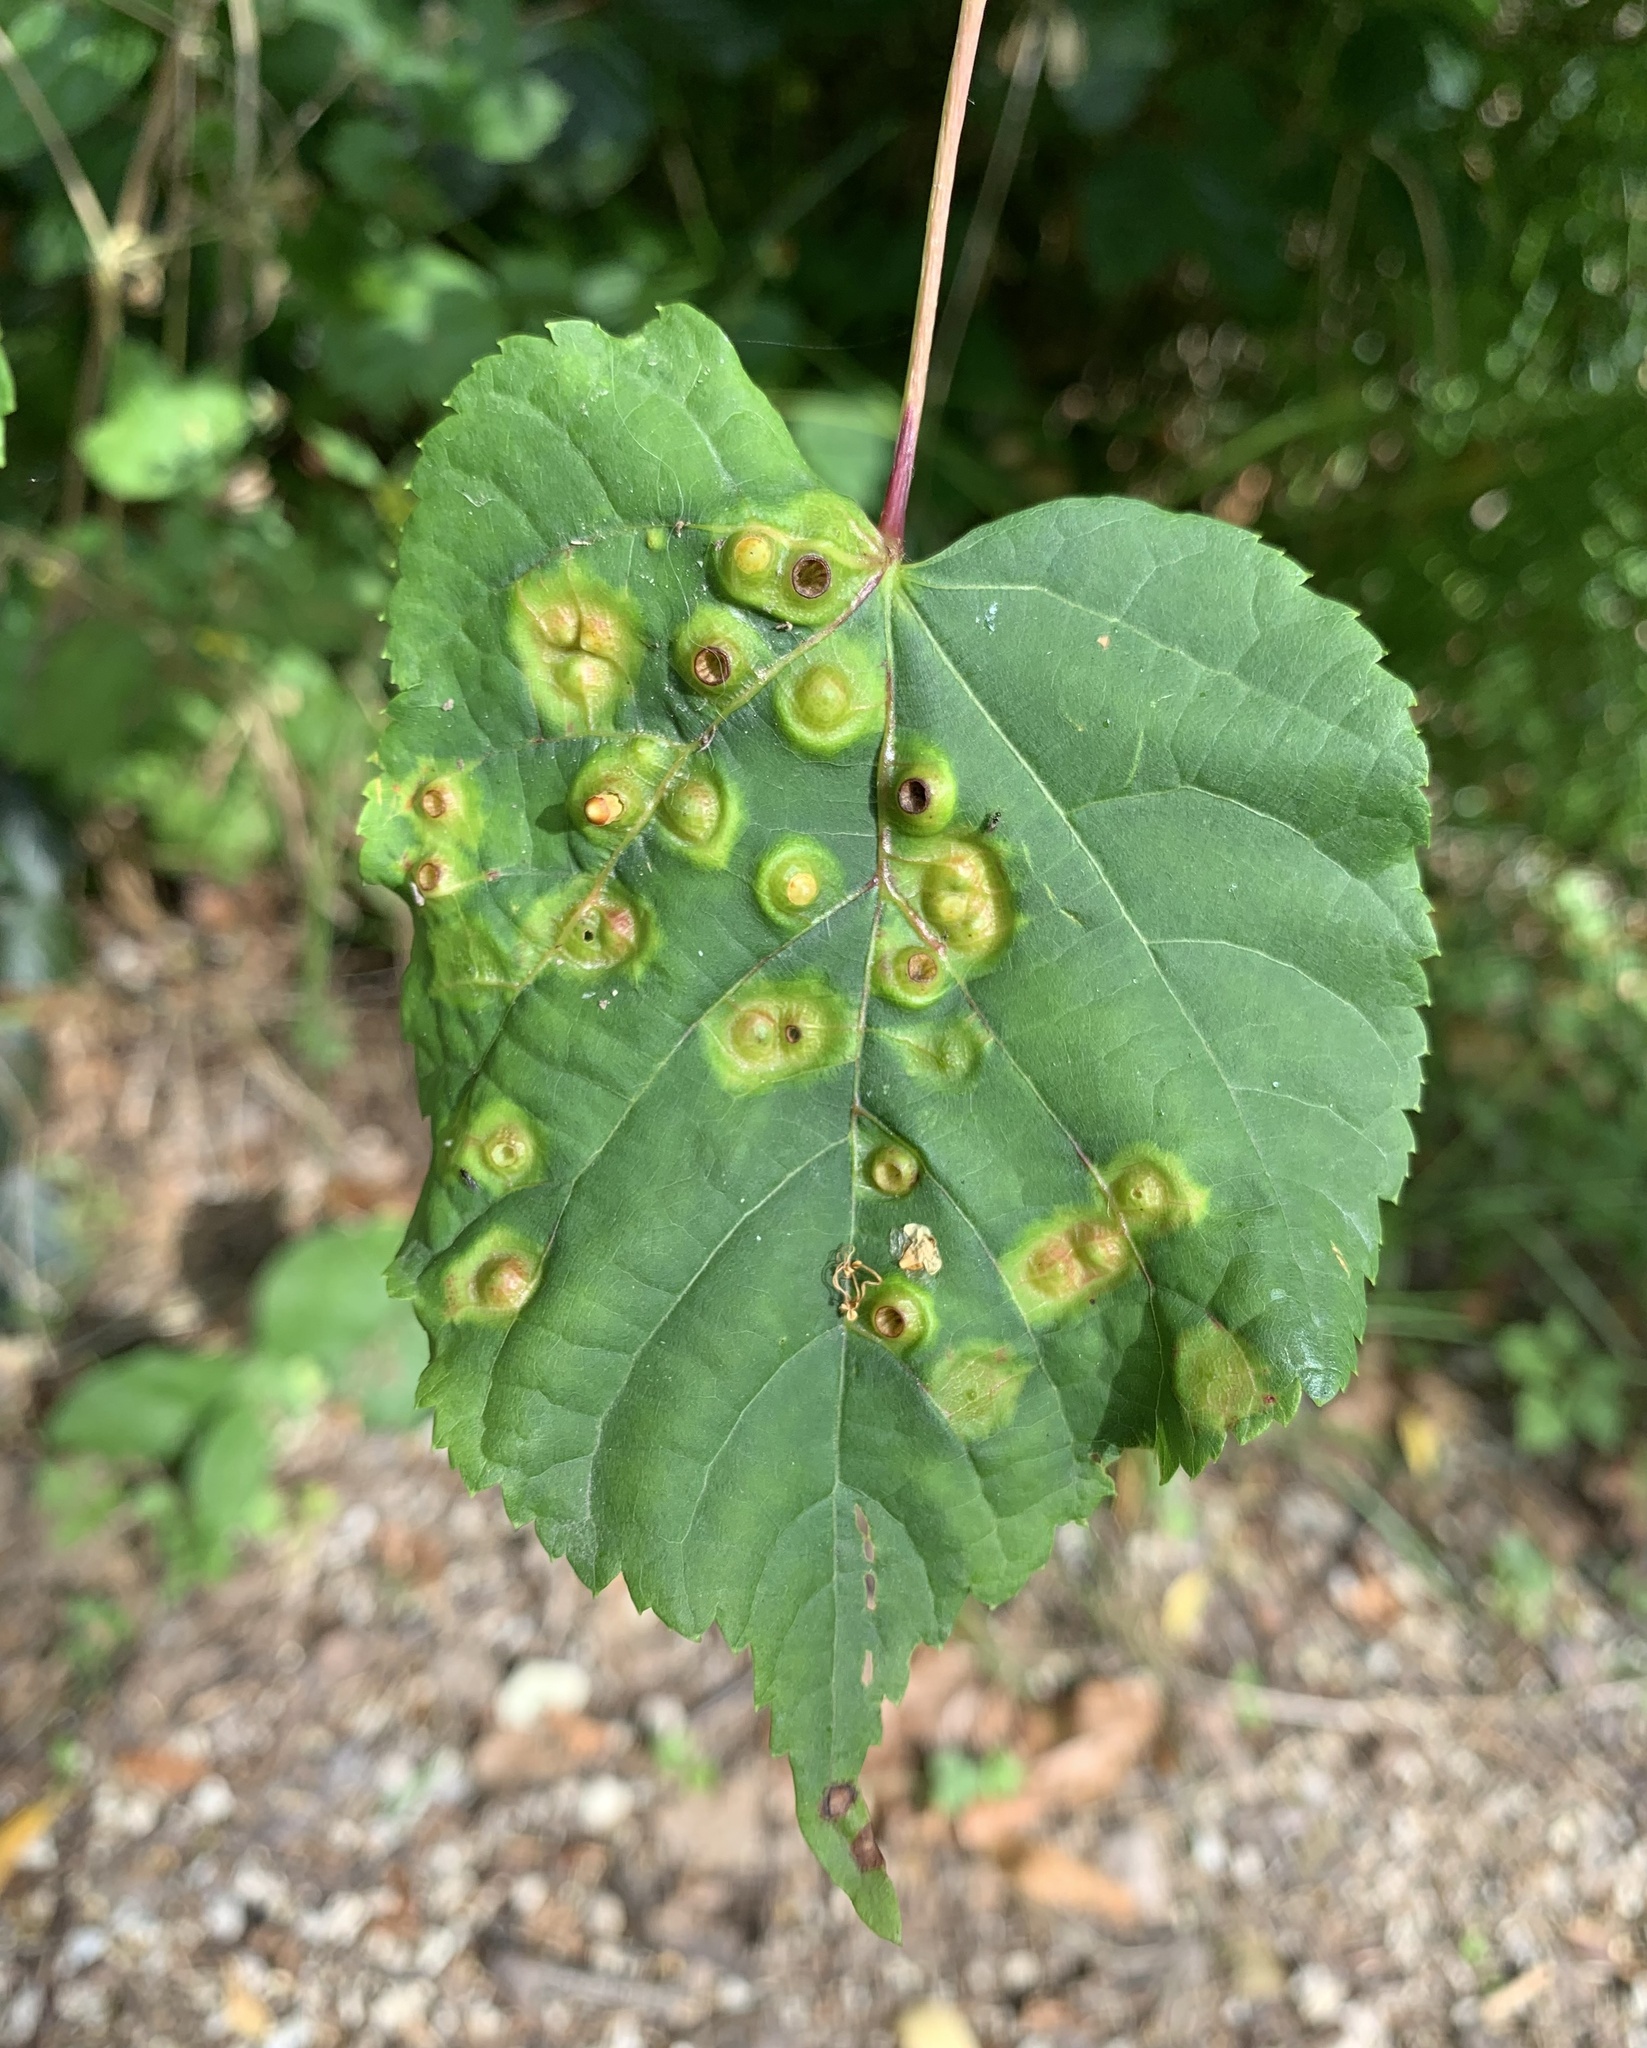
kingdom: Animalia
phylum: Arthropoda
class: Insecta
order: Diptera
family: Cecidomyiidae
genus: Didymomyia
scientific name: Didymomyia tiliacea
